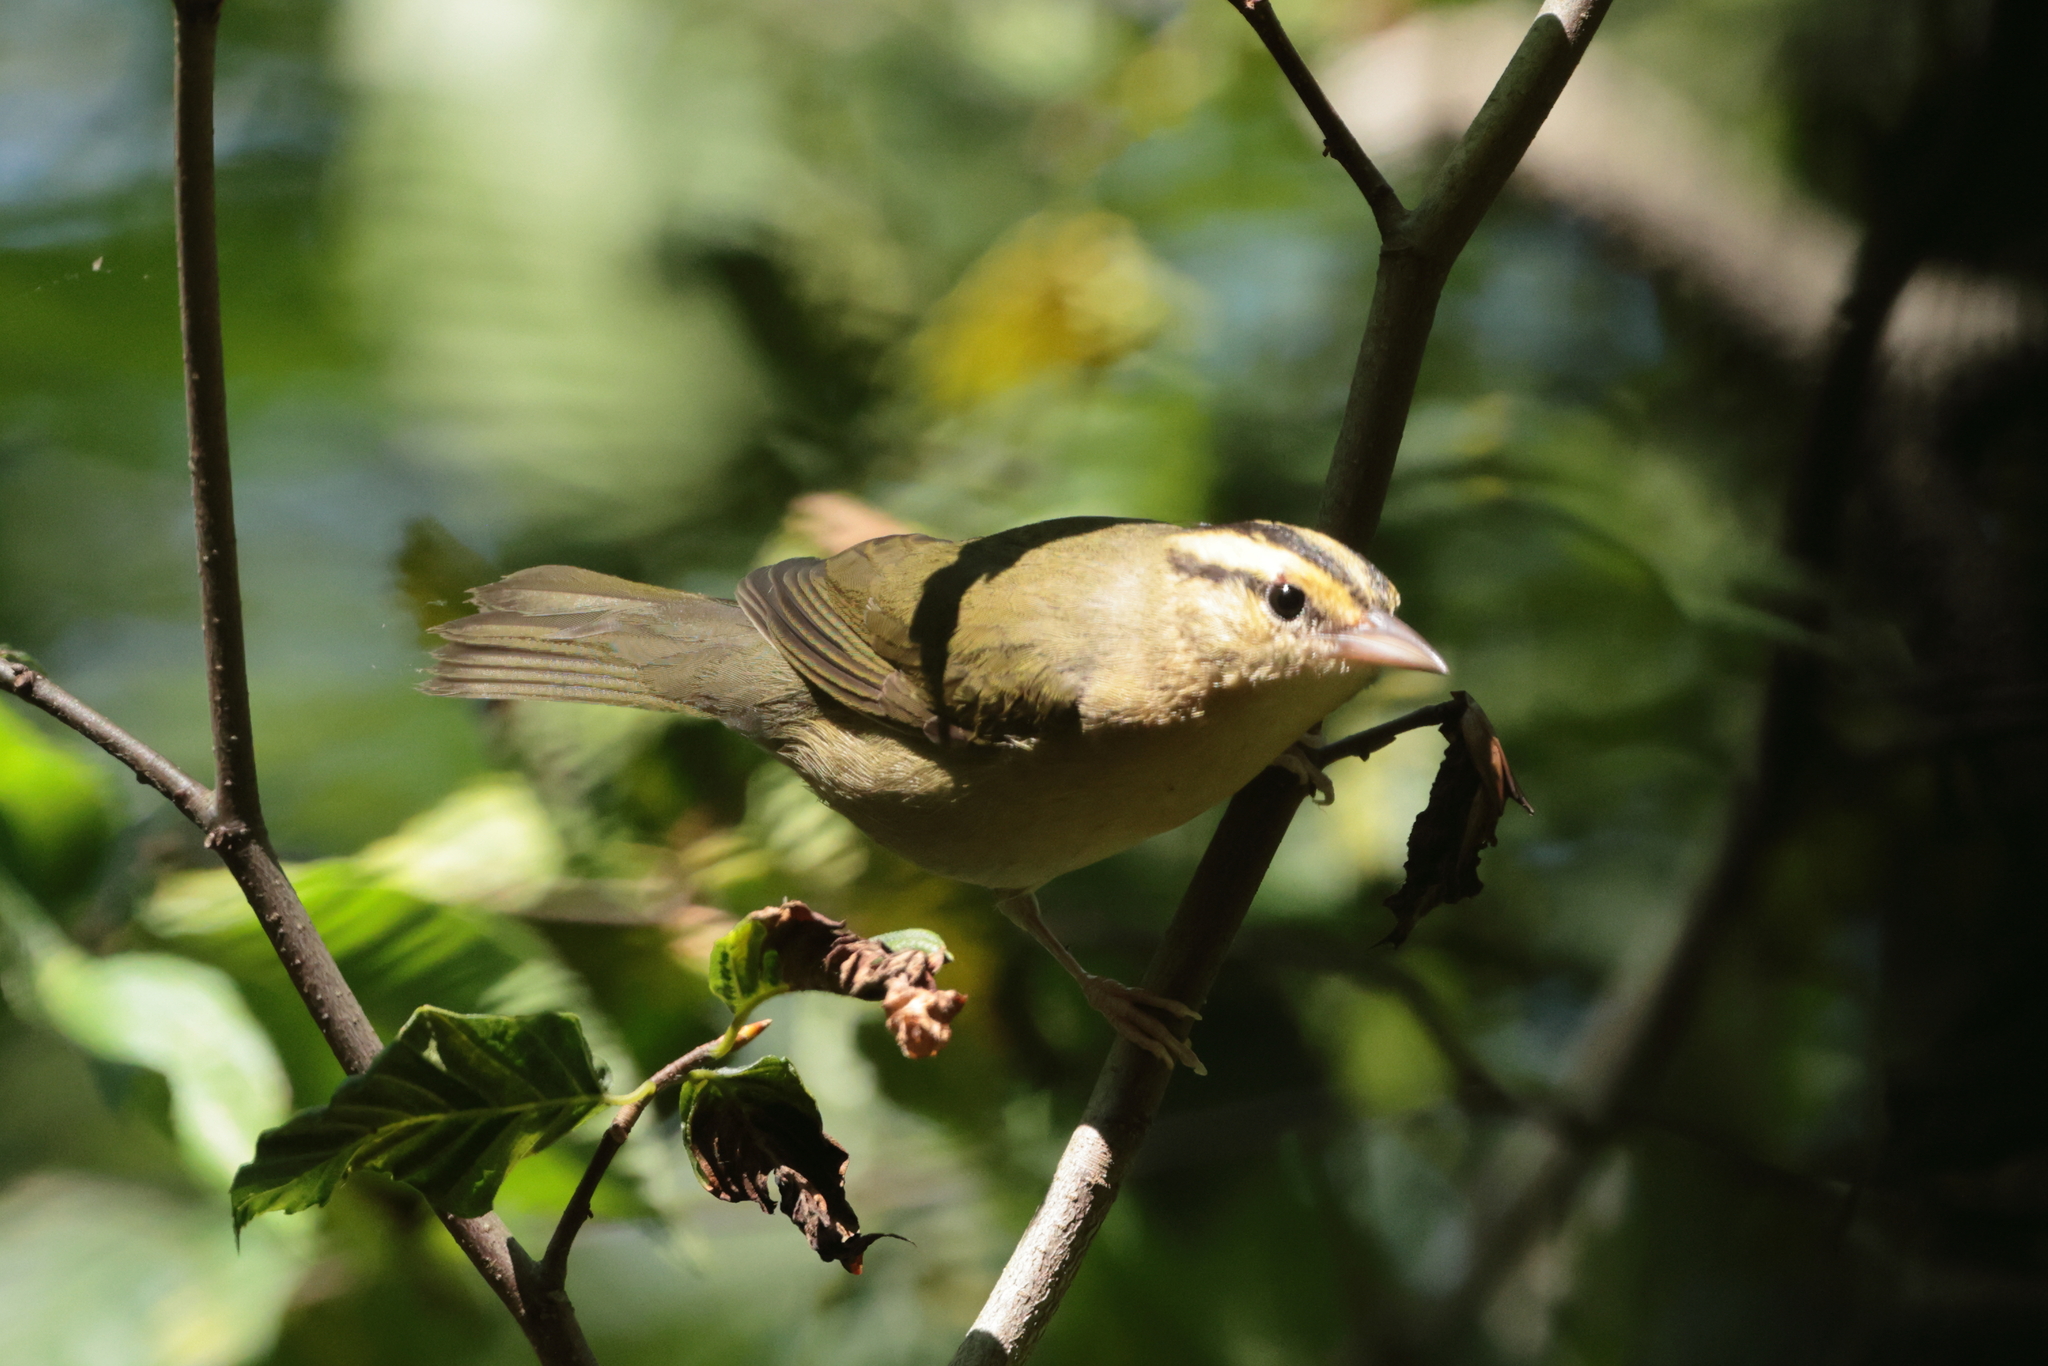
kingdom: Animalia
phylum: Chordata
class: Aves
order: Passeriformes
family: Parulidae
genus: Helmitheros
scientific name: Helmitheros vermivorum
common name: Worm-eating warbler
